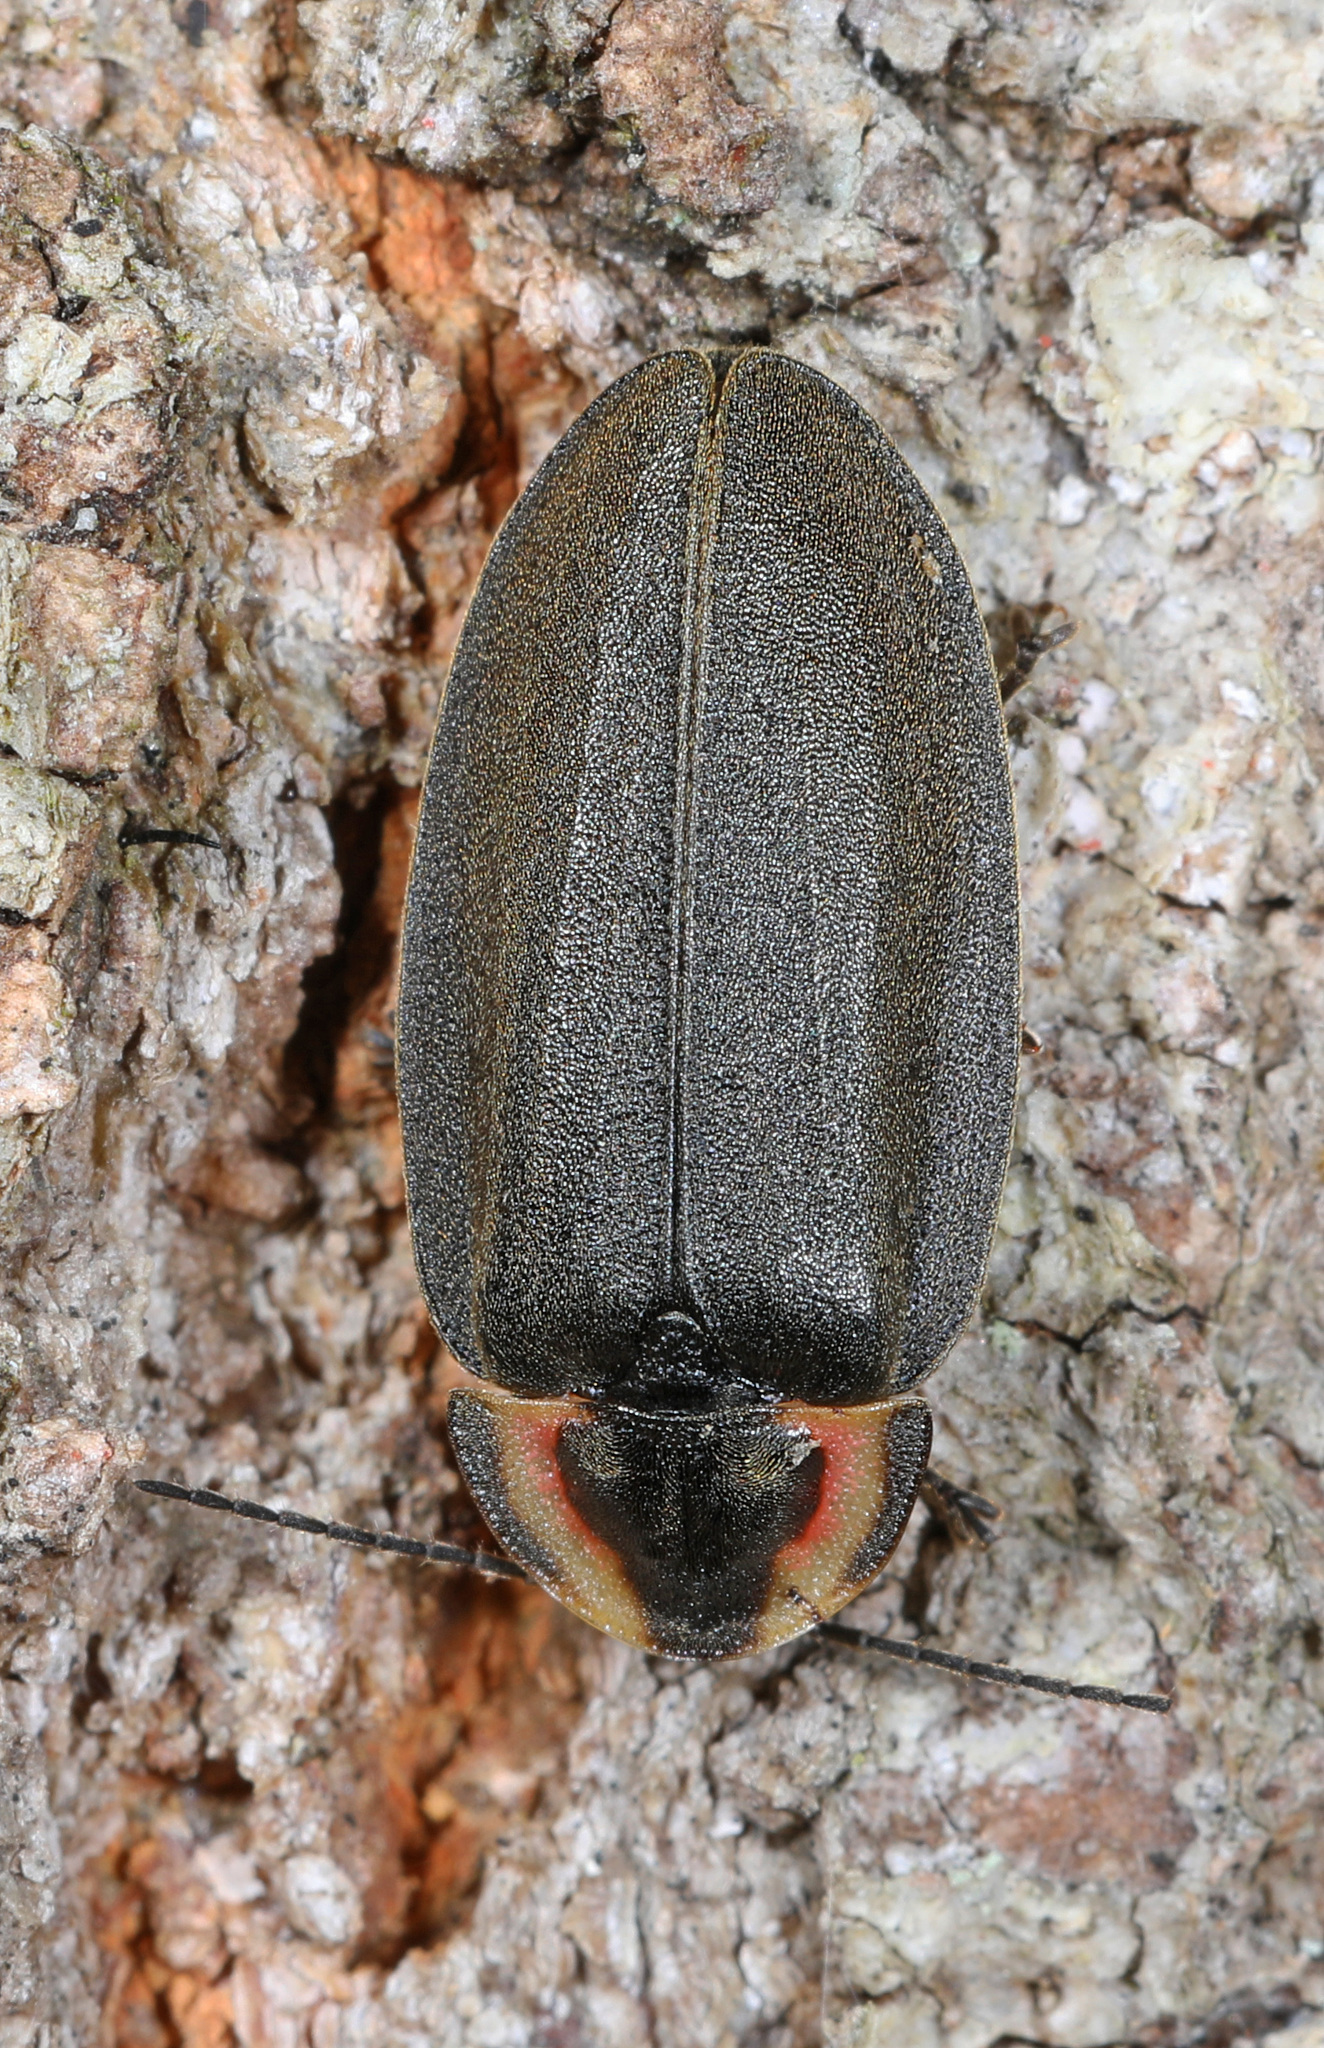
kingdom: Animalia
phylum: Arthropoda
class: Insecta
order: Coleoptera
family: Lampyridae
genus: Photinus
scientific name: Photinus corrusca
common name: Winter firefly
